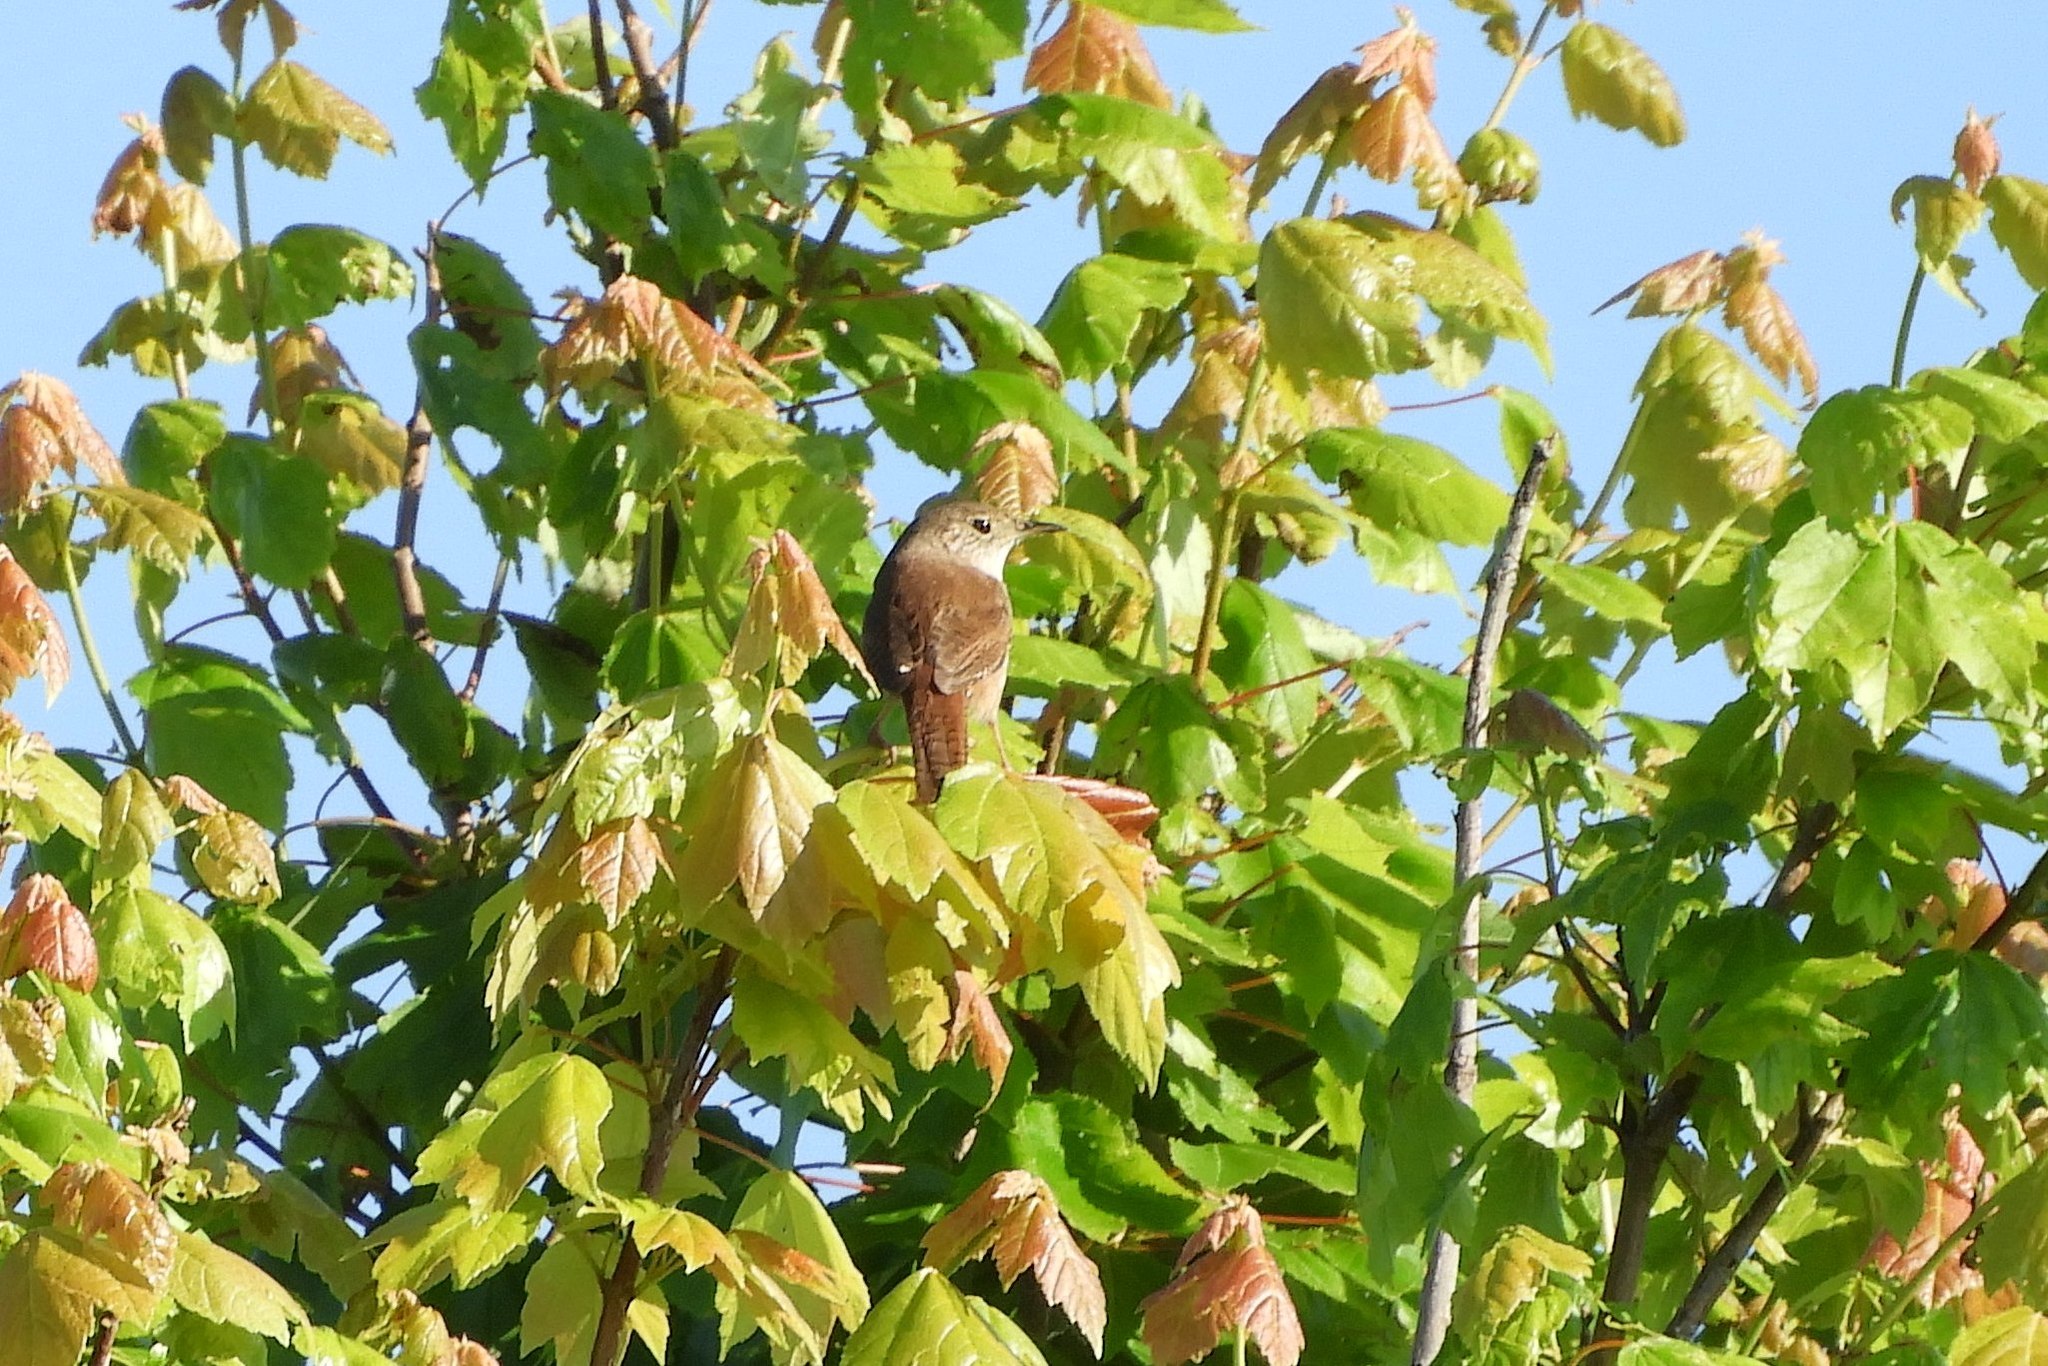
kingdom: Animalia
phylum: Chordata
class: Aves
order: Passeriformes
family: Troglodytidae
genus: Troglodytes
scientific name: Troglodytes aedon
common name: House wren
